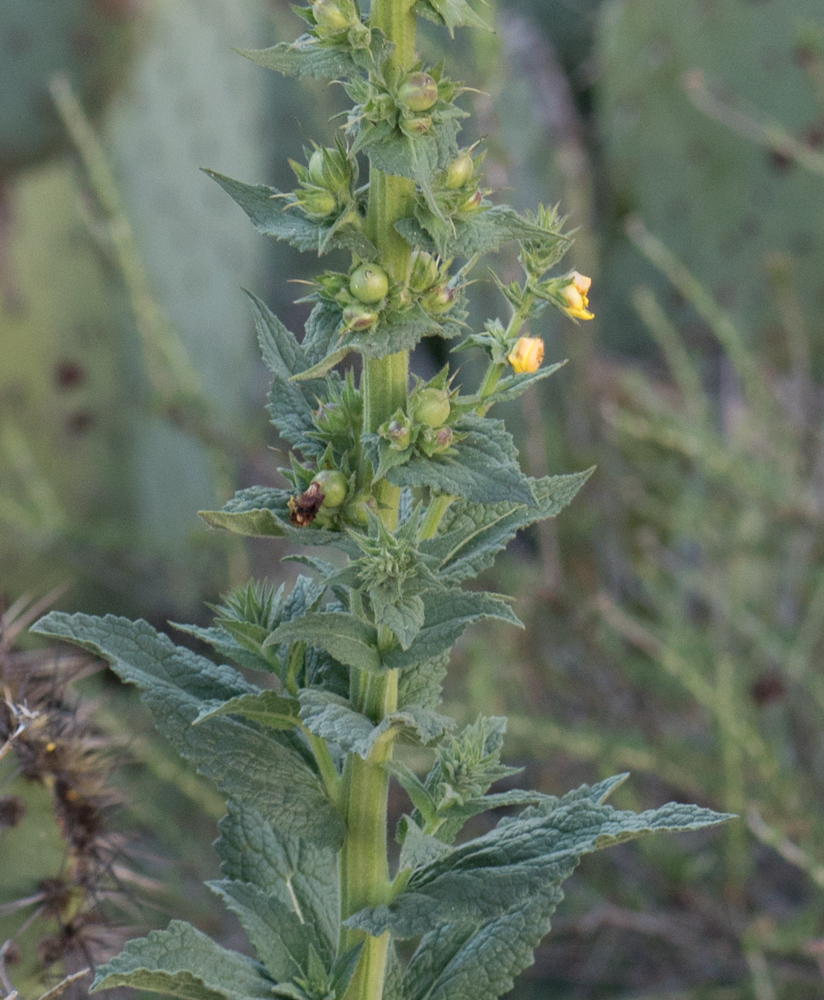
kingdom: Plantae
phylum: Tracheophyta
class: Magnoliopsida
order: Lamiales
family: Scrophulariaceae
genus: Verbascum
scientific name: Verbascum virgatum
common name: Twiggy mullein
